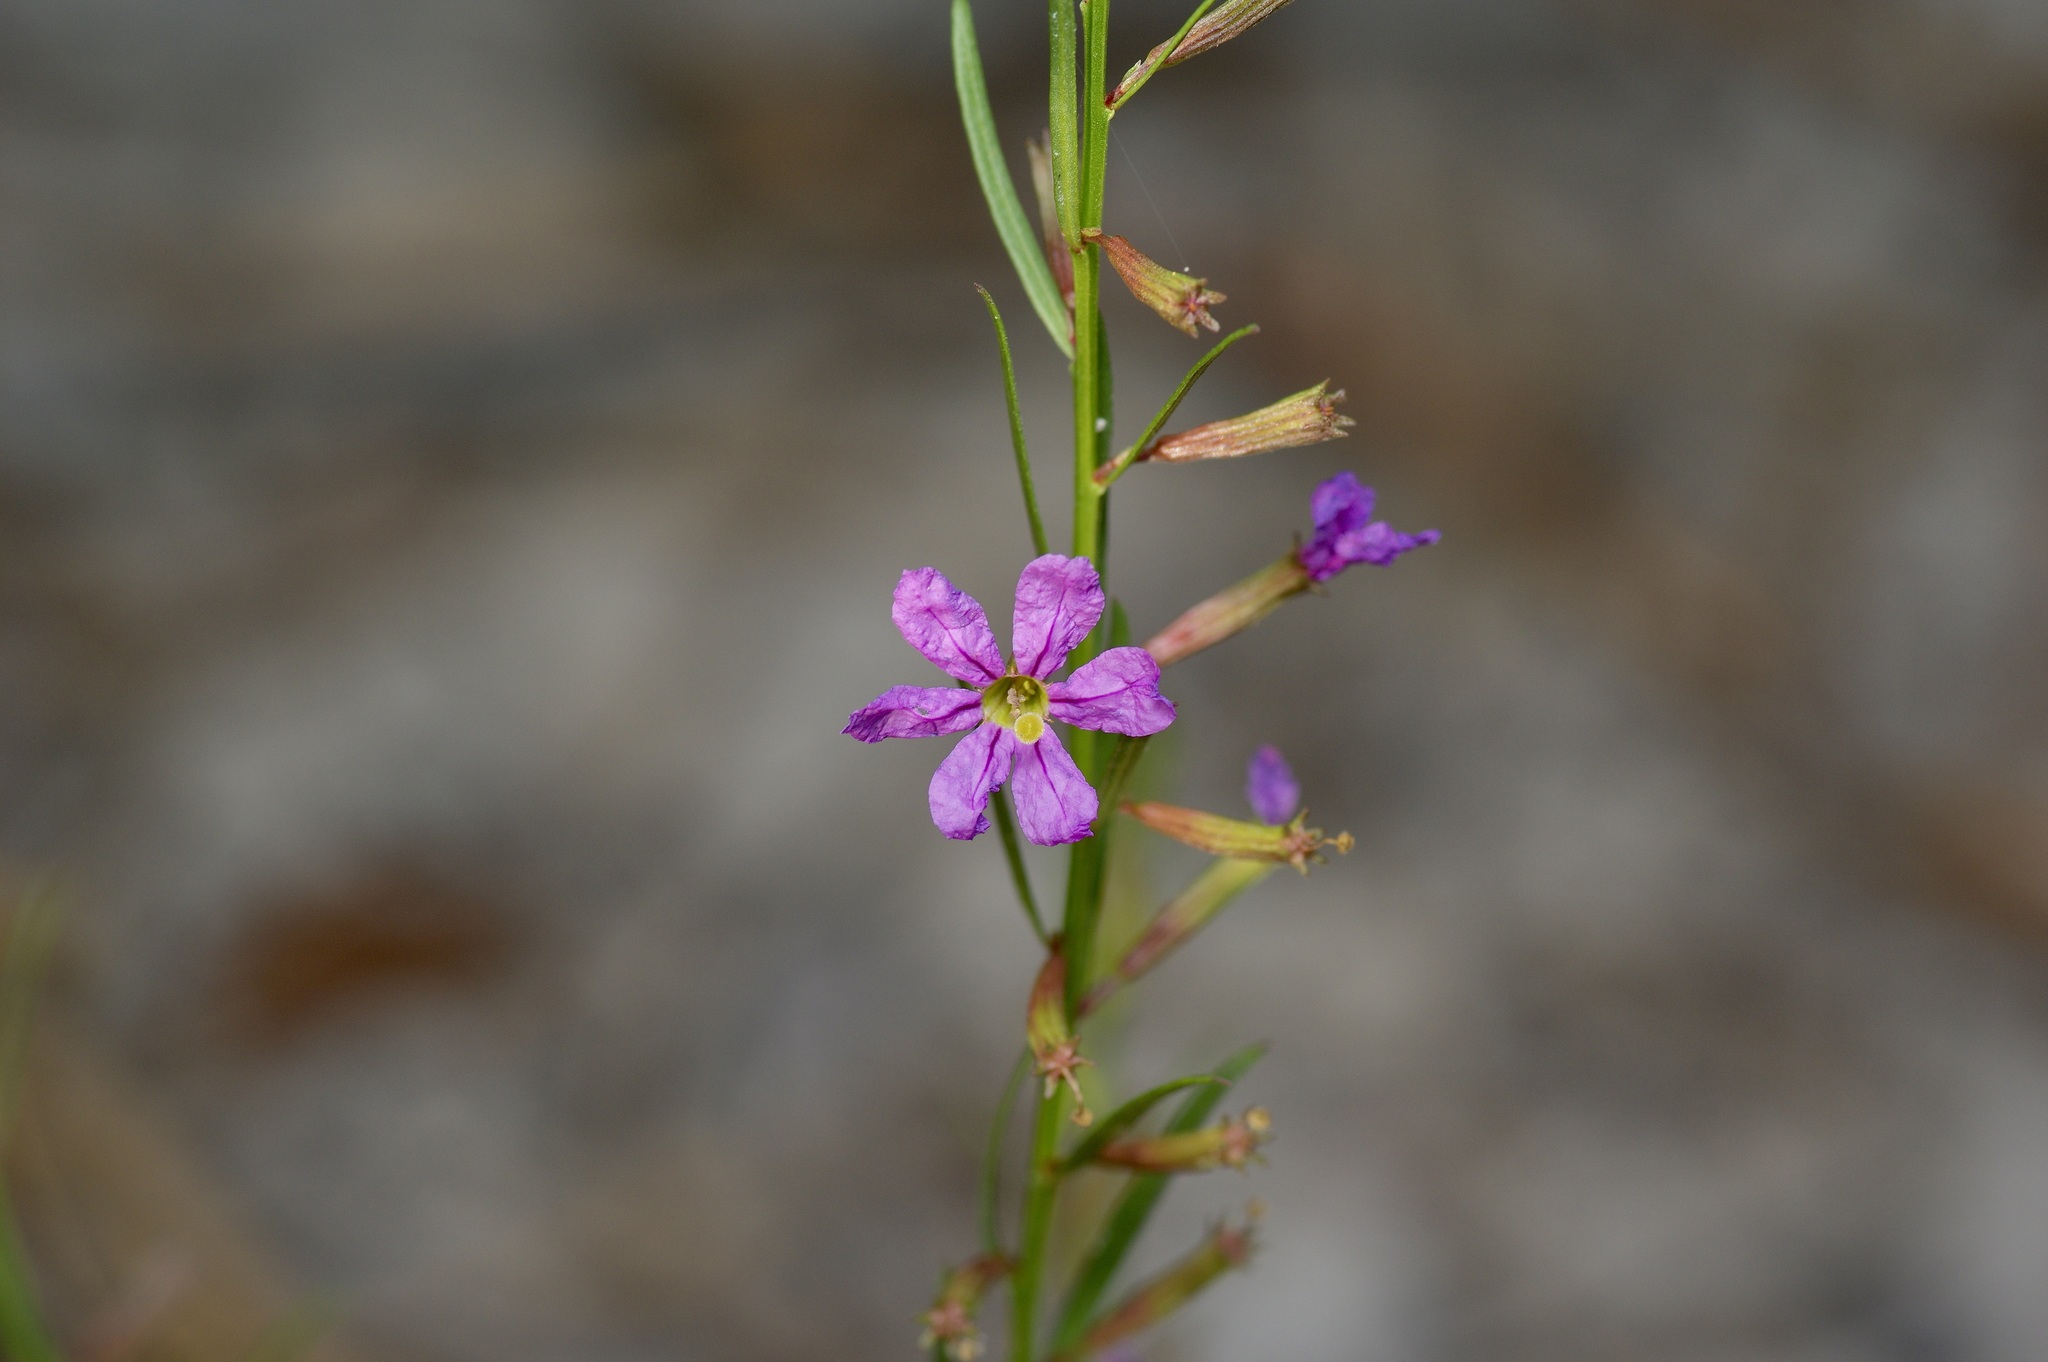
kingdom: Plantae
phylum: Tracheophyta
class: Magnoliopsida
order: Myrtales
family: Lythraceae
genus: Lythrum
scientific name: Lythrum californicum
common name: California loosestrife
